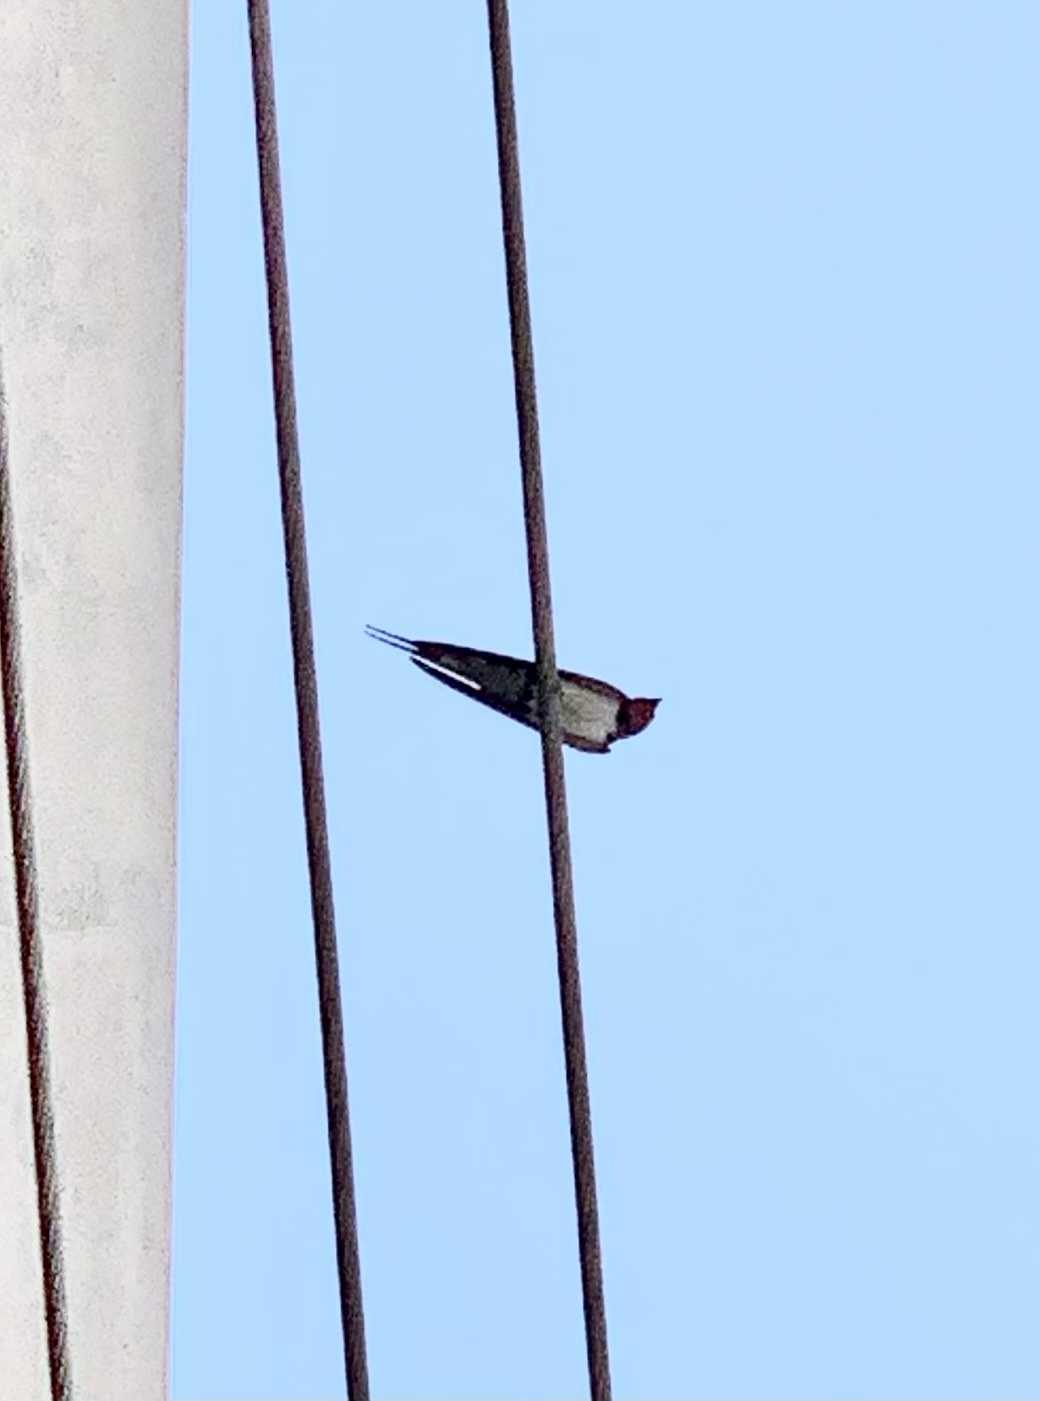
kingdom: Animalia
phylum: Chordata
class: Aves
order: Passeriformes
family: Hirundinidae
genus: Hirundo
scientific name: Hirundo rustica
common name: Barn swallow
